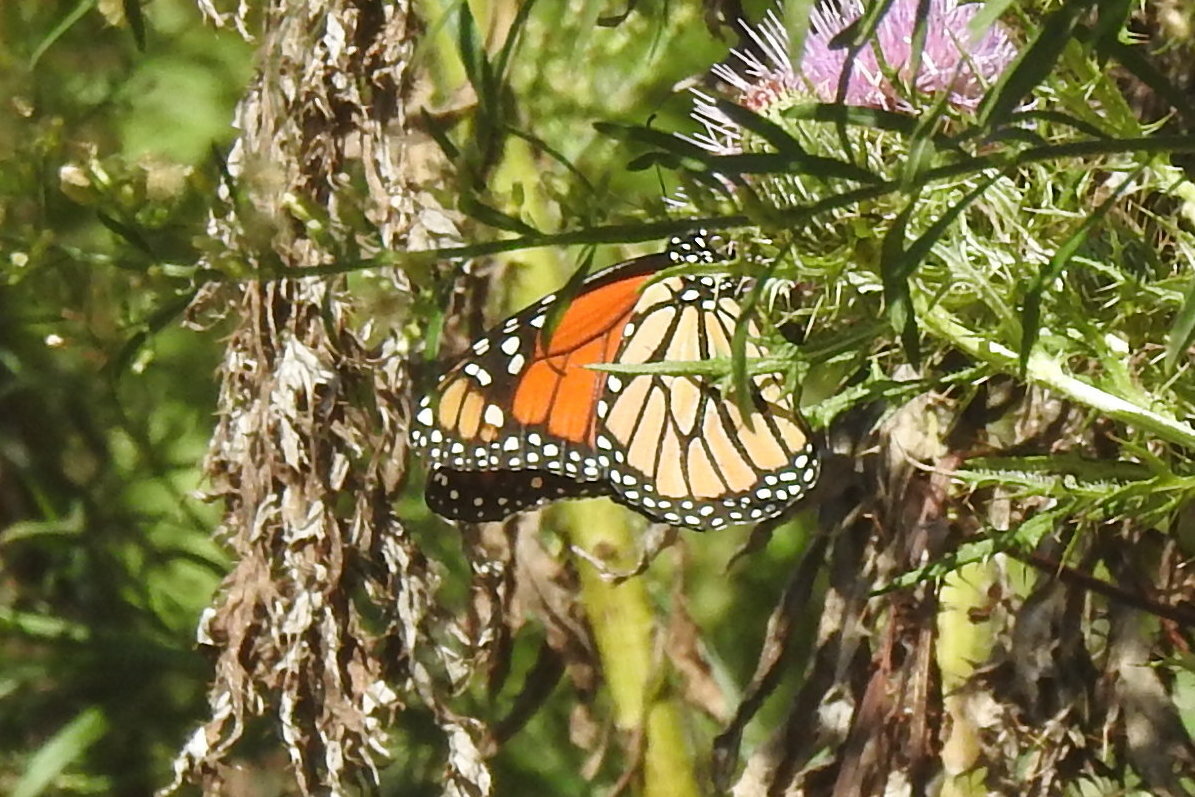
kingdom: Animalia
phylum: Arthropoda
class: Insecta
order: Lepidoptera
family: Nymphalidae
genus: Danaus
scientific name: Danaus plexippus
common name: Monarch
